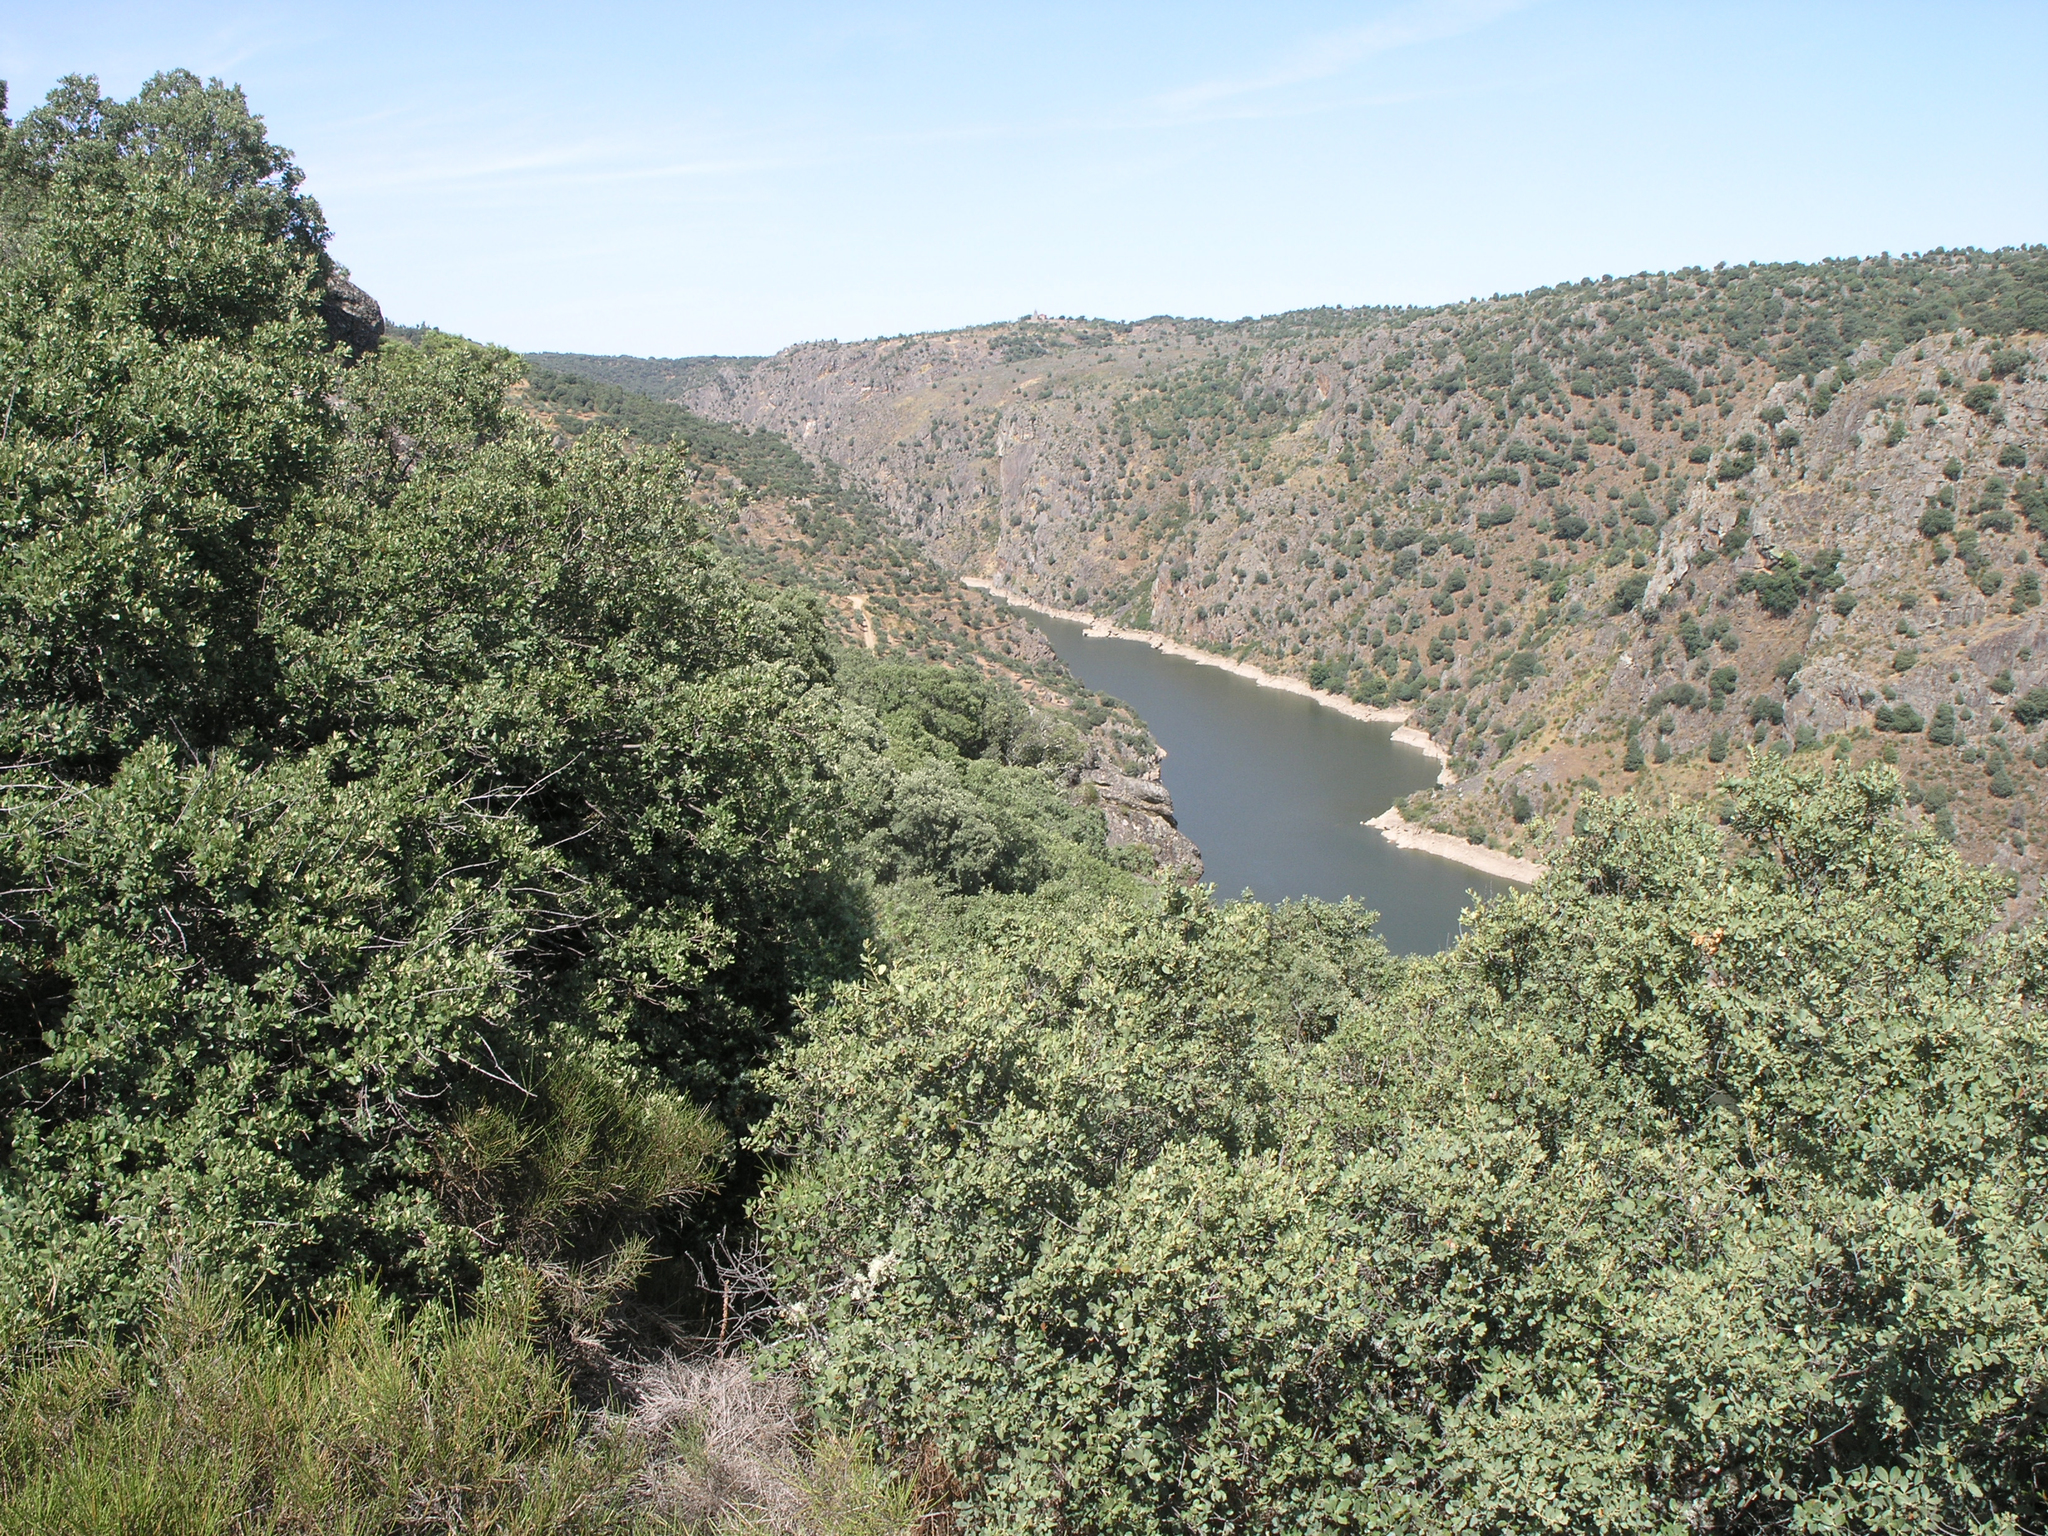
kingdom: Plantae
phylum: Tracheophyta
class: Magnoliopsida
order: Fagales
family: Fagaceae
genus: Quercus
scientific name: Quercus rotundifolia
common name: Holm oak
